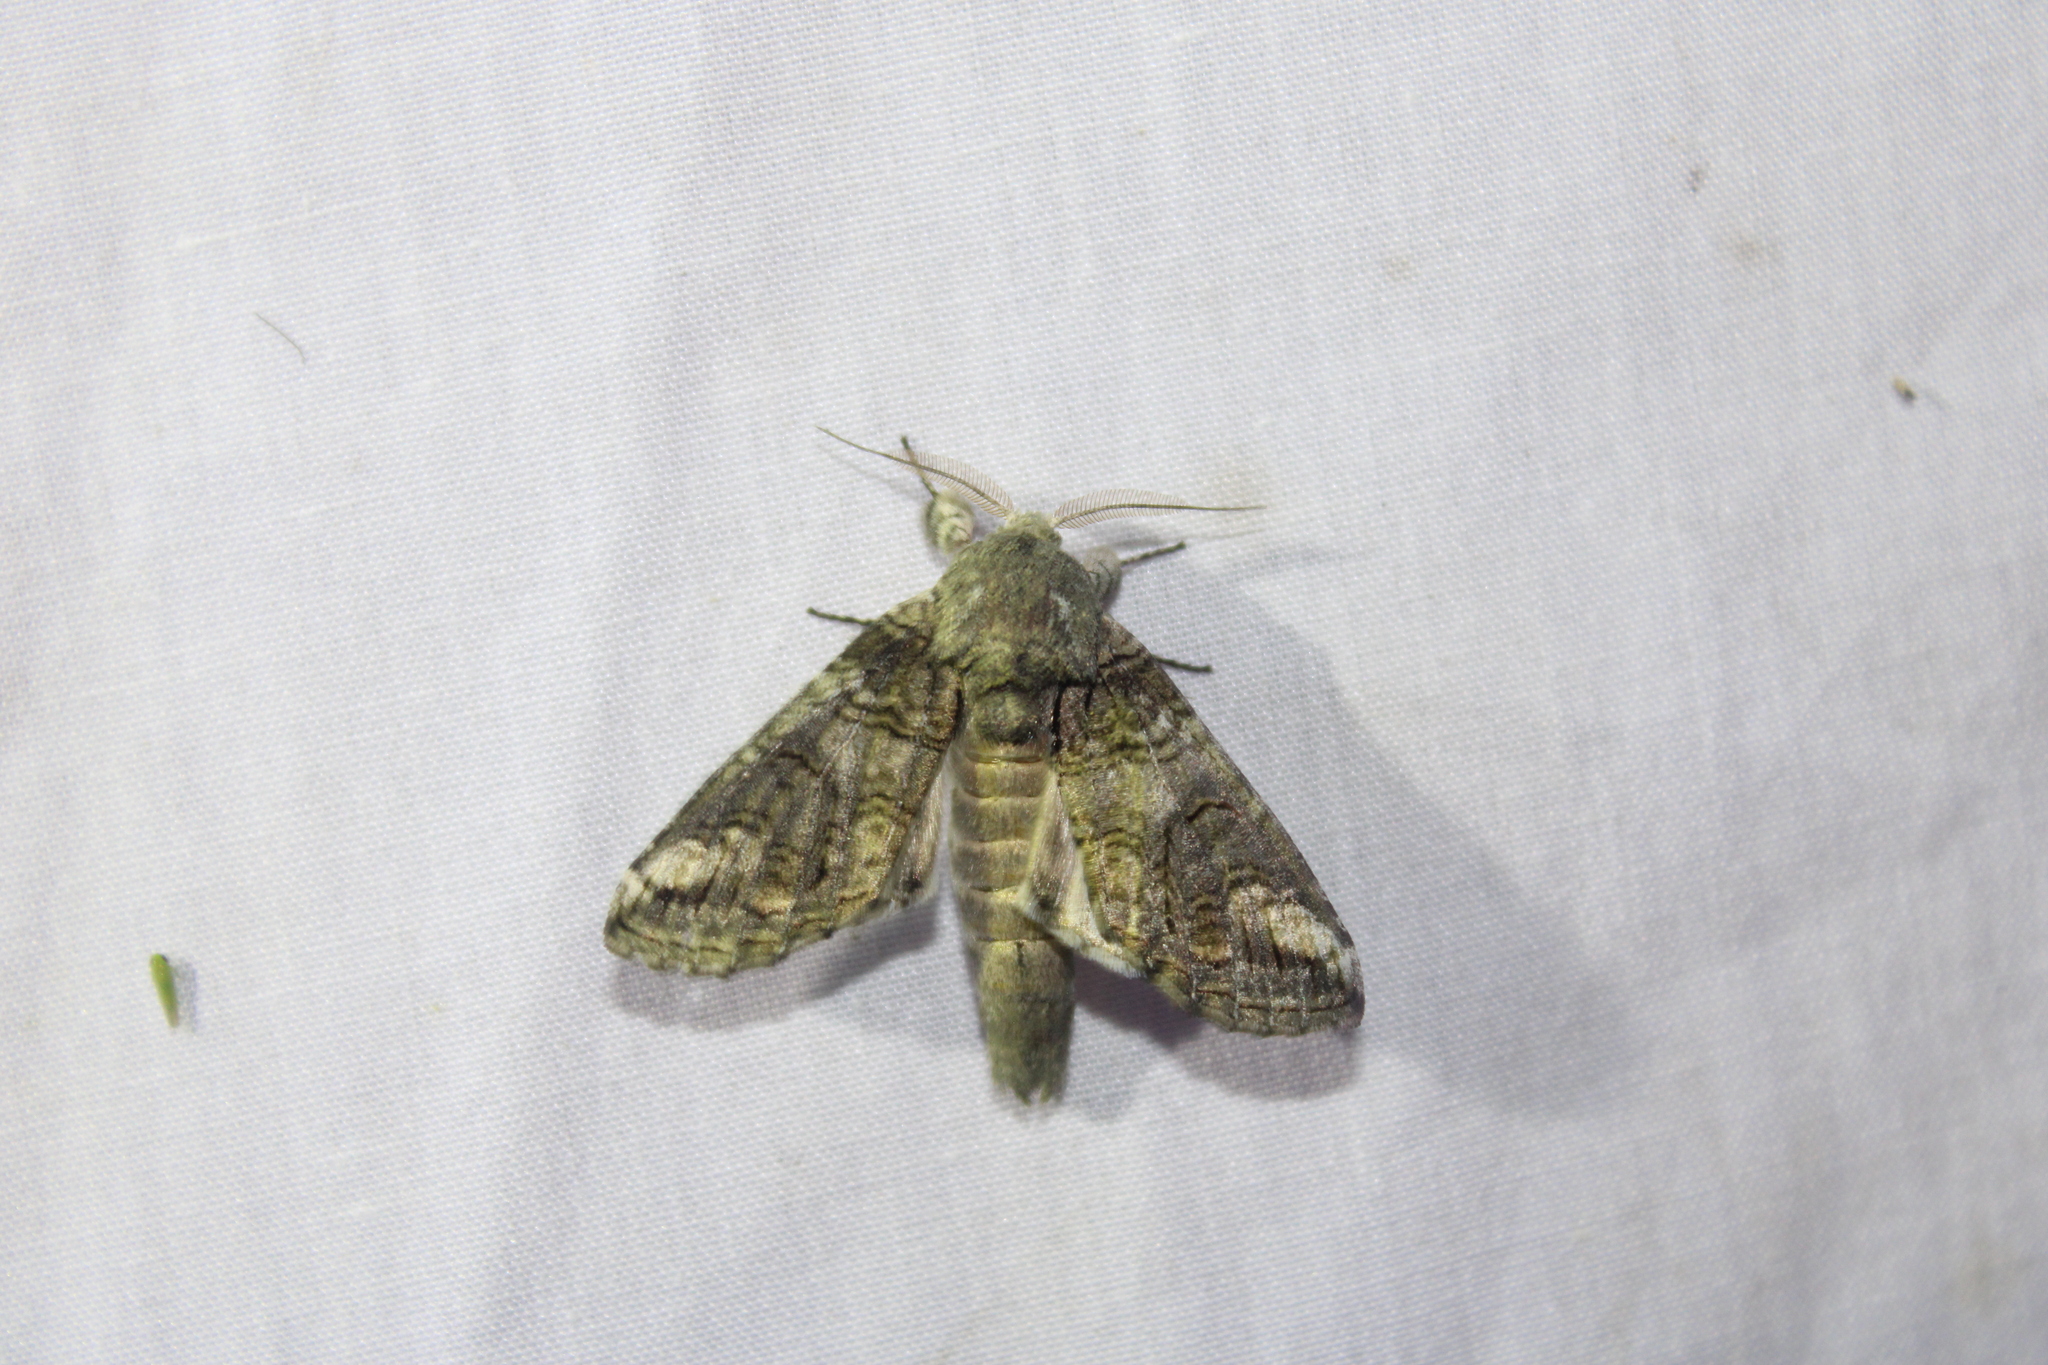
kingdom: Animalia
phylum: Arthropoda
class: Insecta
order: Lepidoptera
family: Notodontidae
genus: Heterocampa
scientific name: Heterocampa obliqua
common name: Oblique heterocampa
